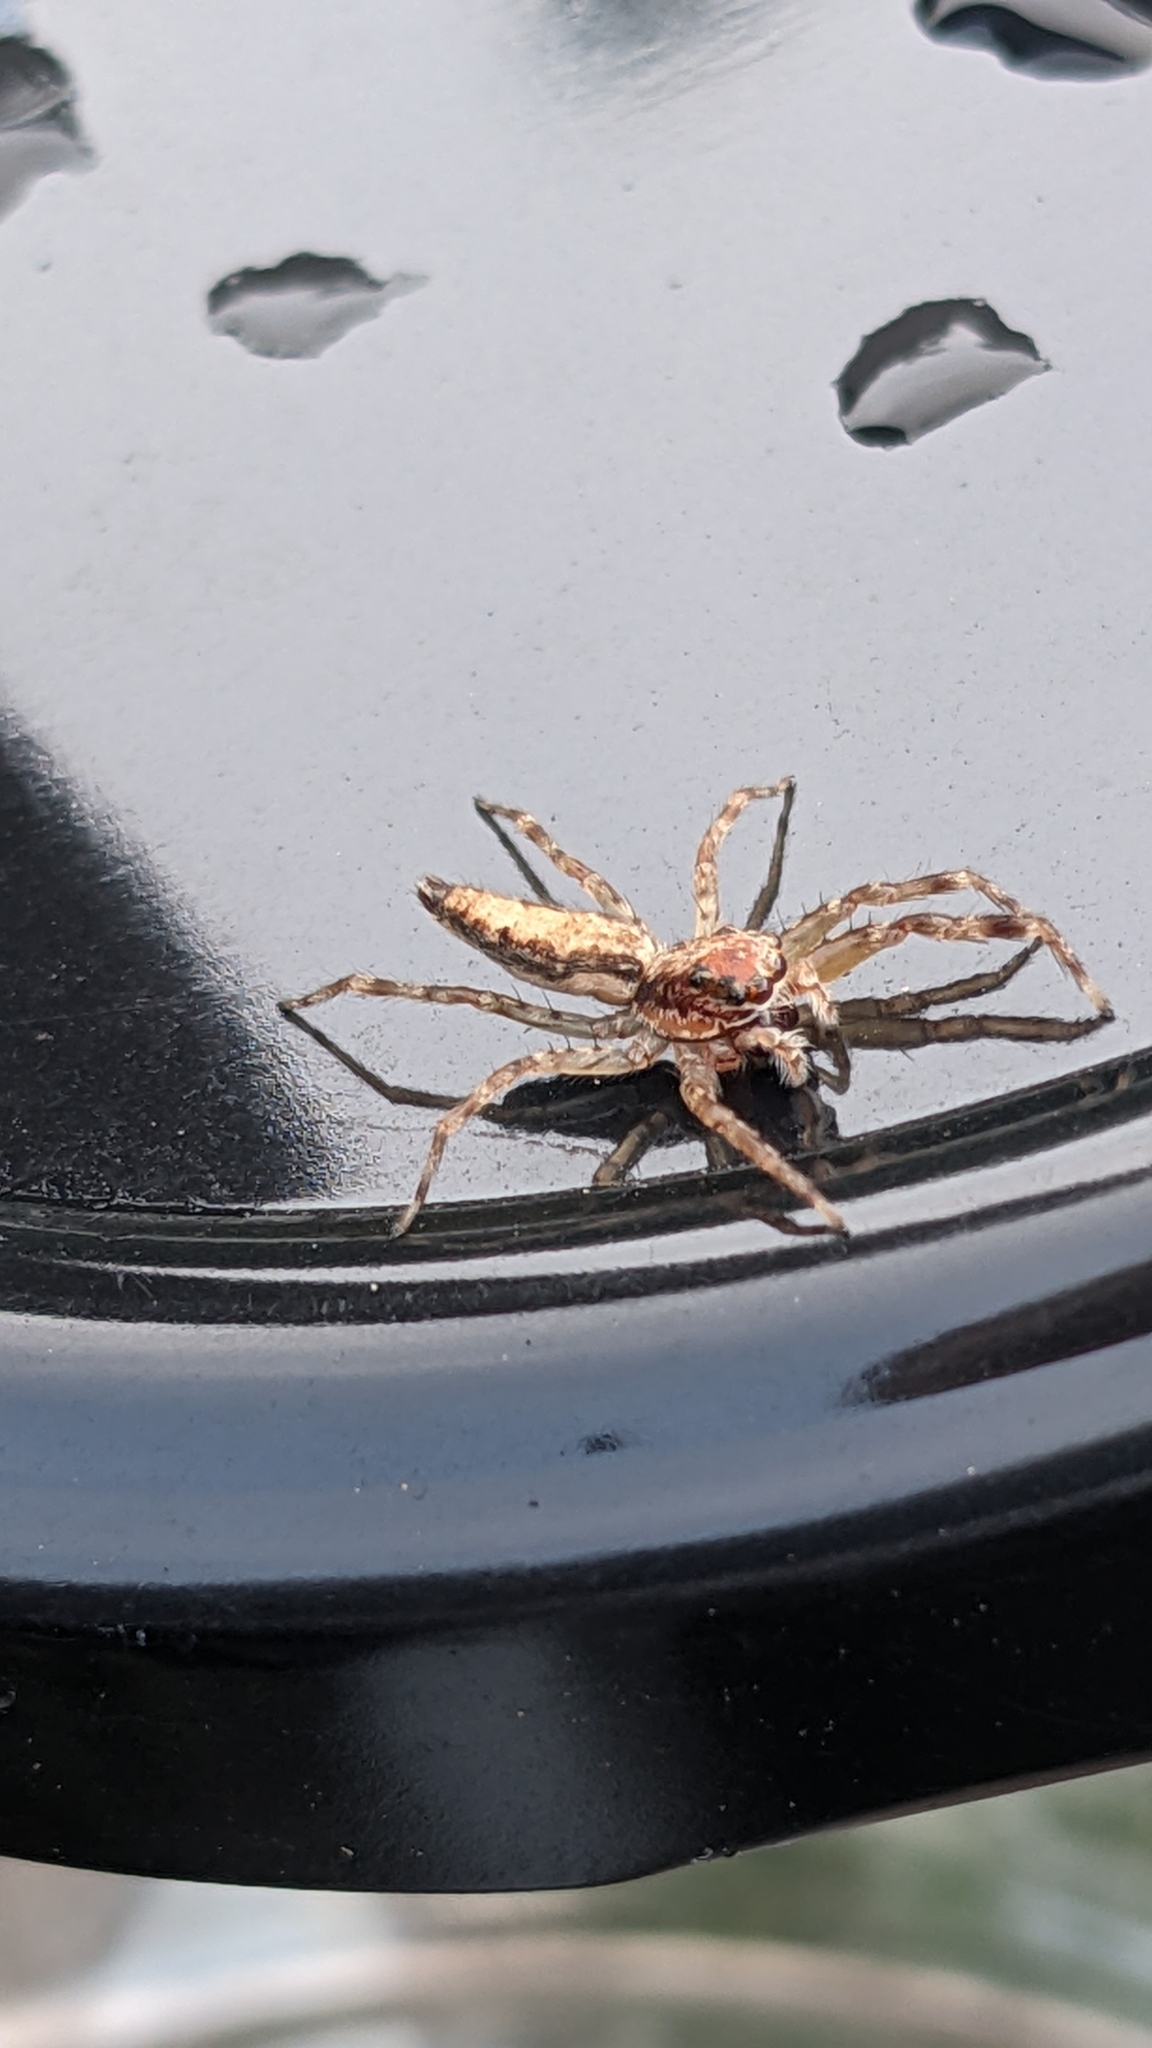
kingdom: Animalia
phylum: Arthropoda
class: Arachnida
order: Araneae
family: Salticidae
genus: Helpis
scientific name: Helpis minitabunda
